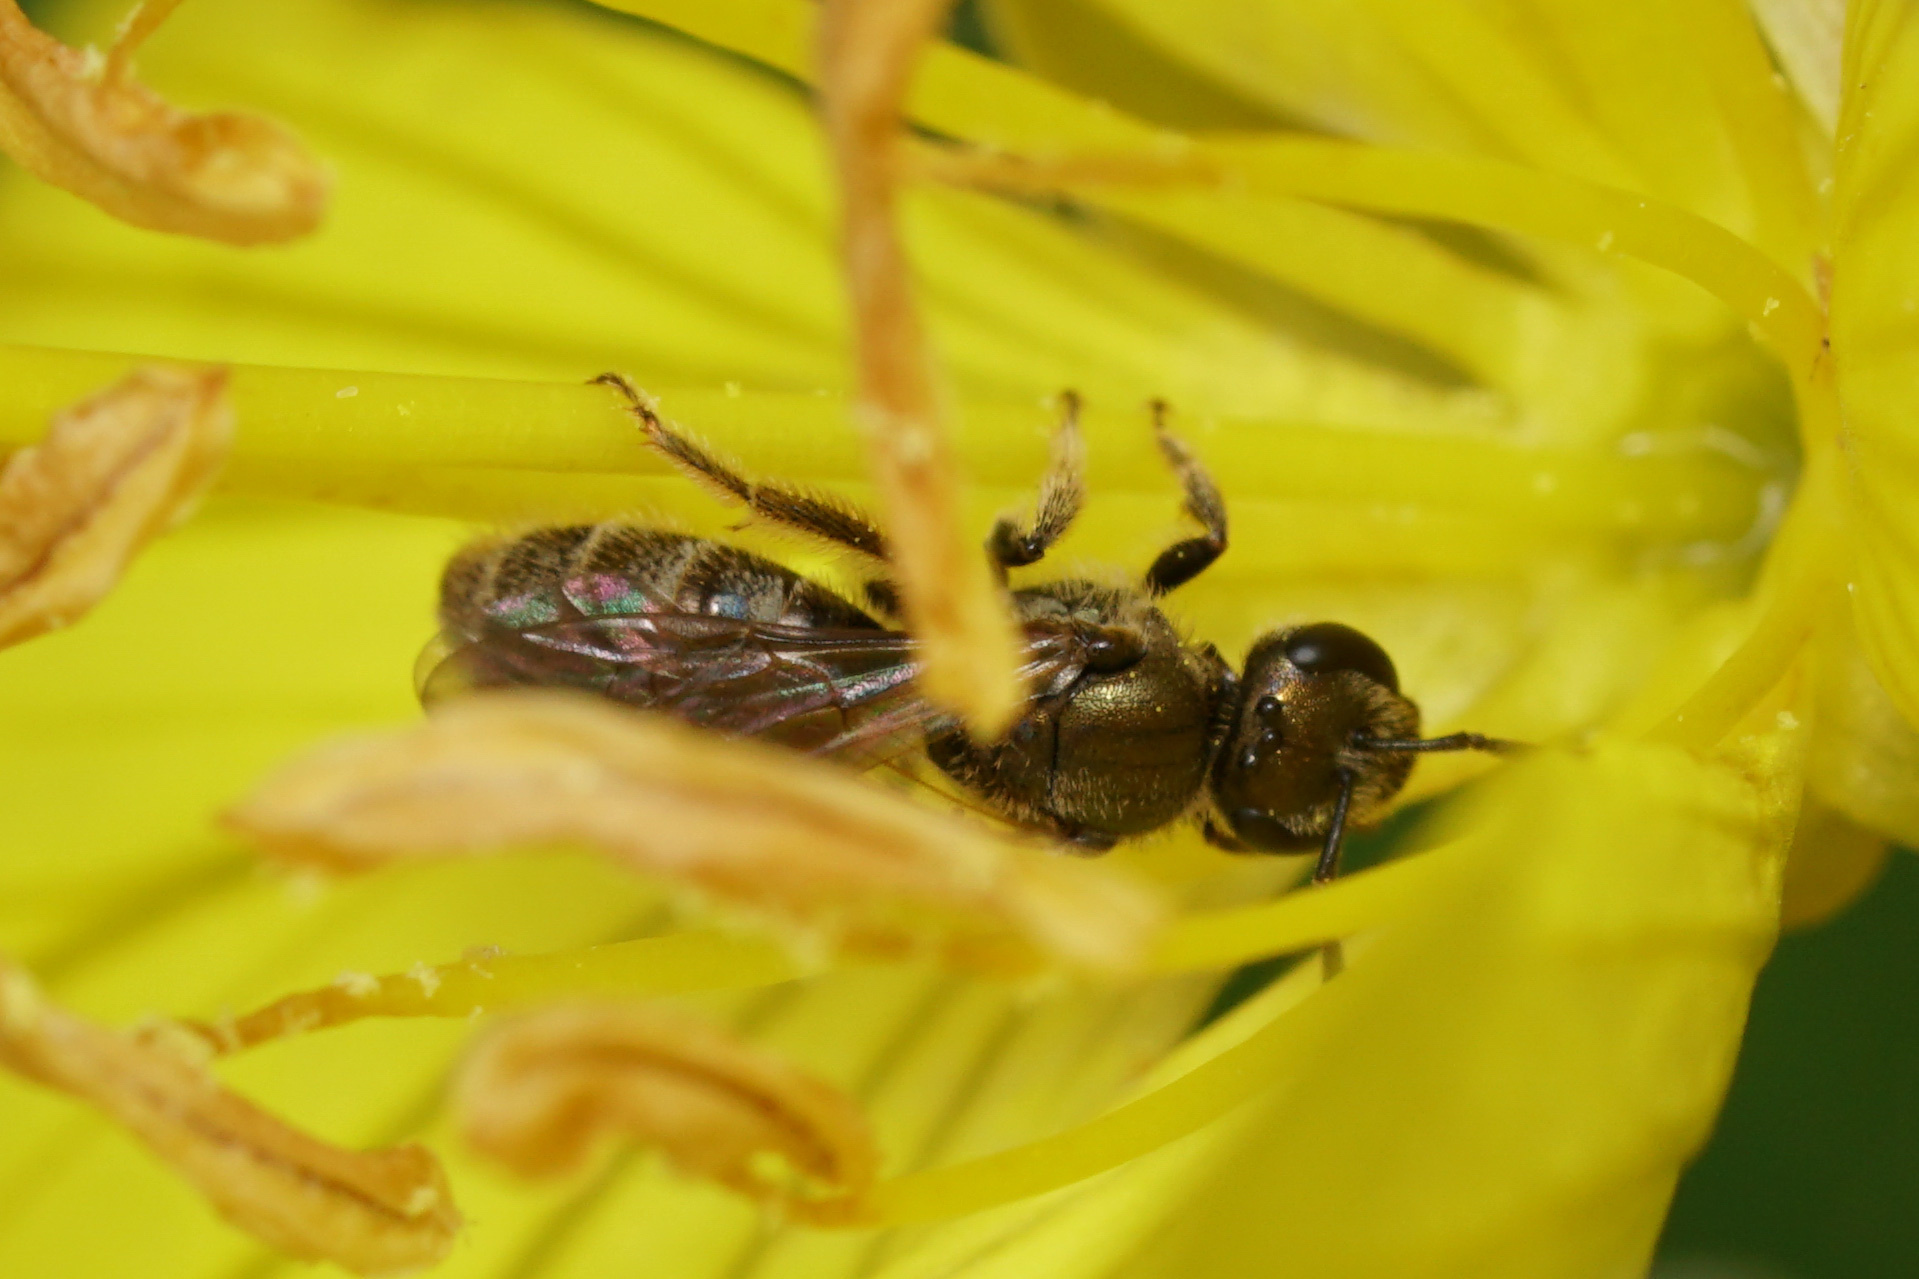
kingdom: Animalia
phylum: Arthropoda
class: Insecta
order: Hymenoptera
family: Halictidae
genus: Lasioglossum
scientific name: Lasioglossum cressonii
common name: Cresson's dialictus
